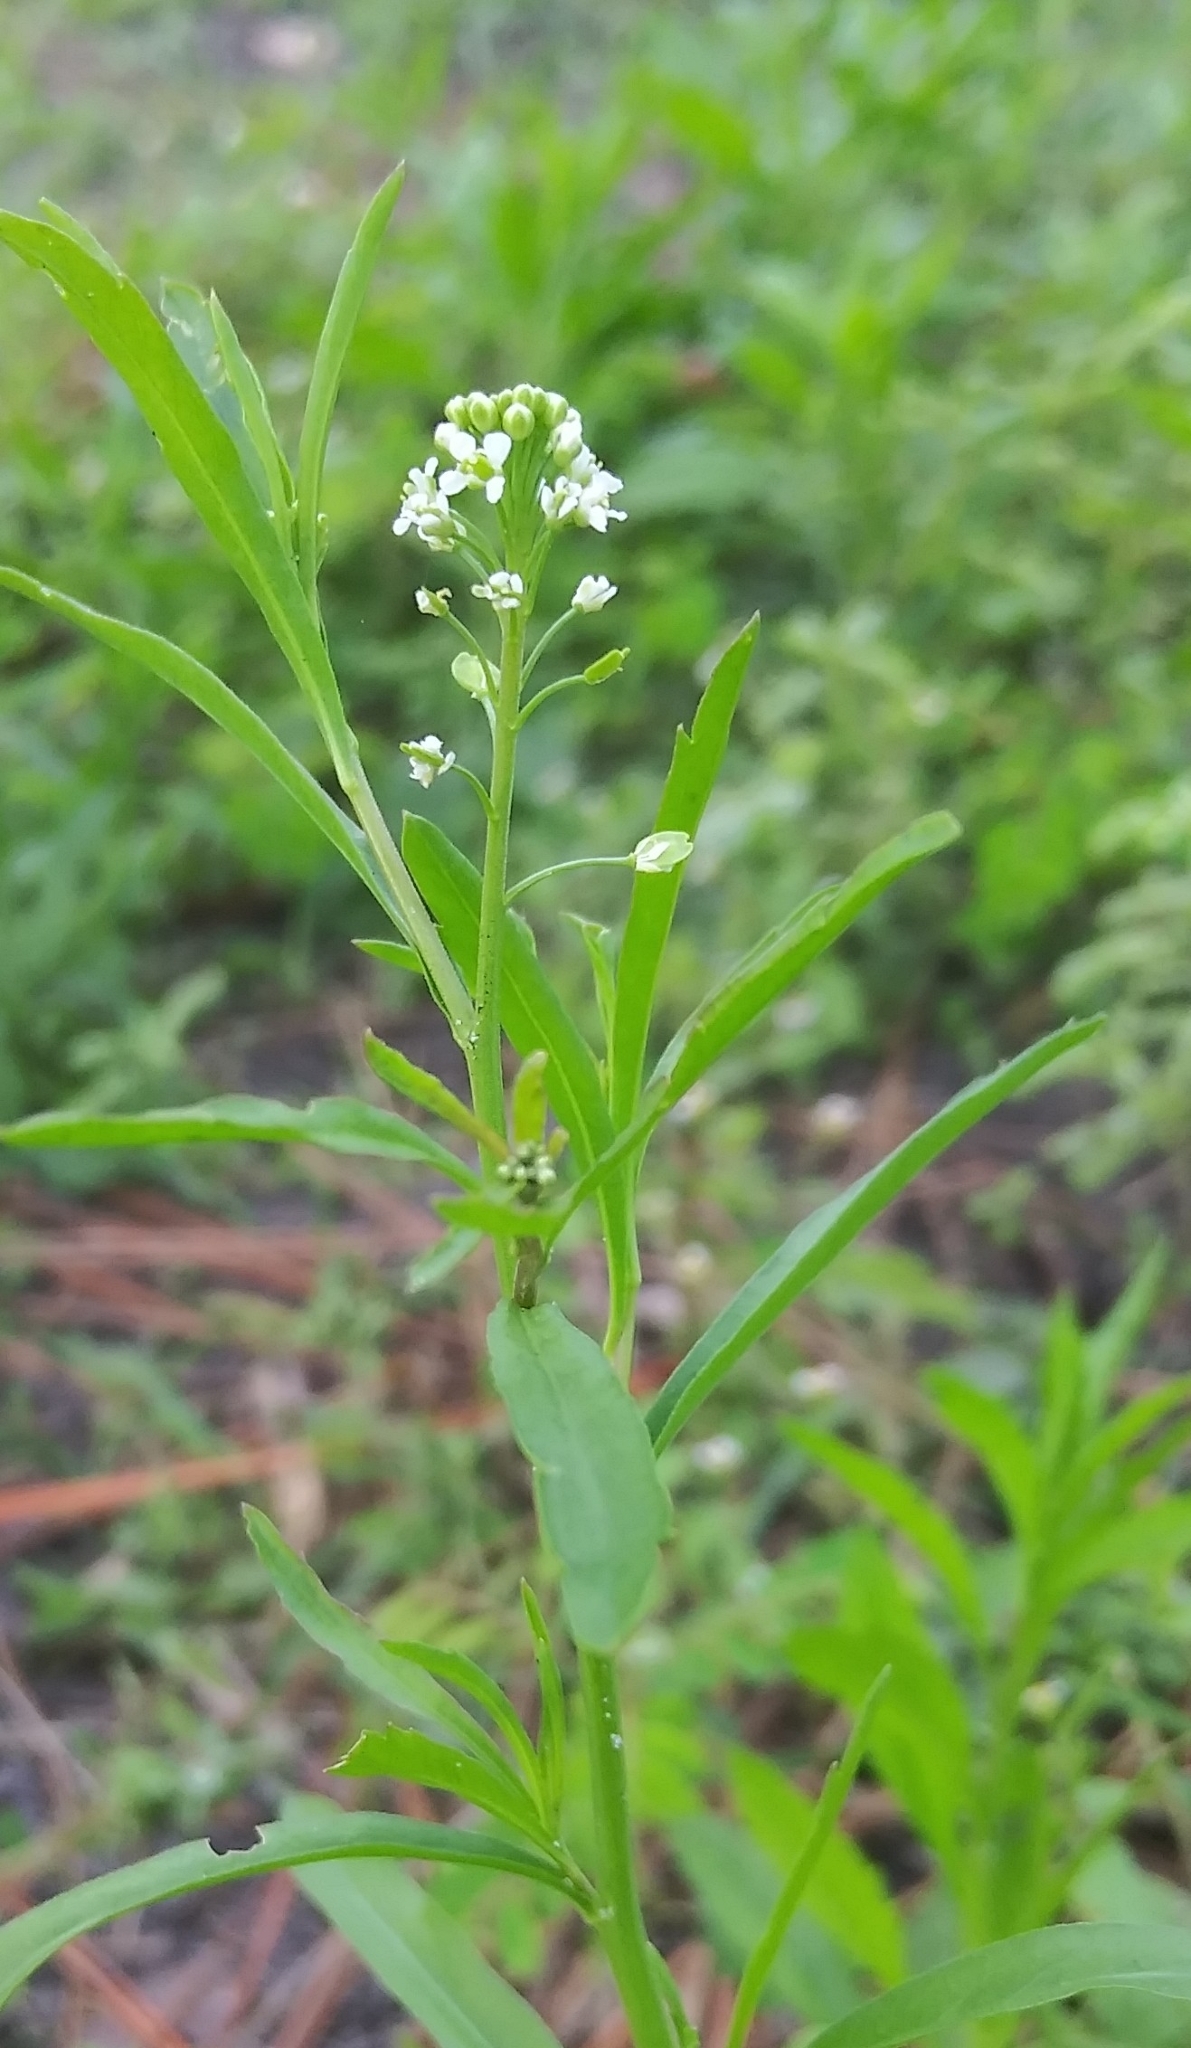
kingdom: Plantae
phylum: Tracheophyta
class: Magnoliopsida
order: Brassicales
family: Brassicaceae
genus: Lepidium
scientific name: Lepidium virginicum
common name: Least pepperwort
